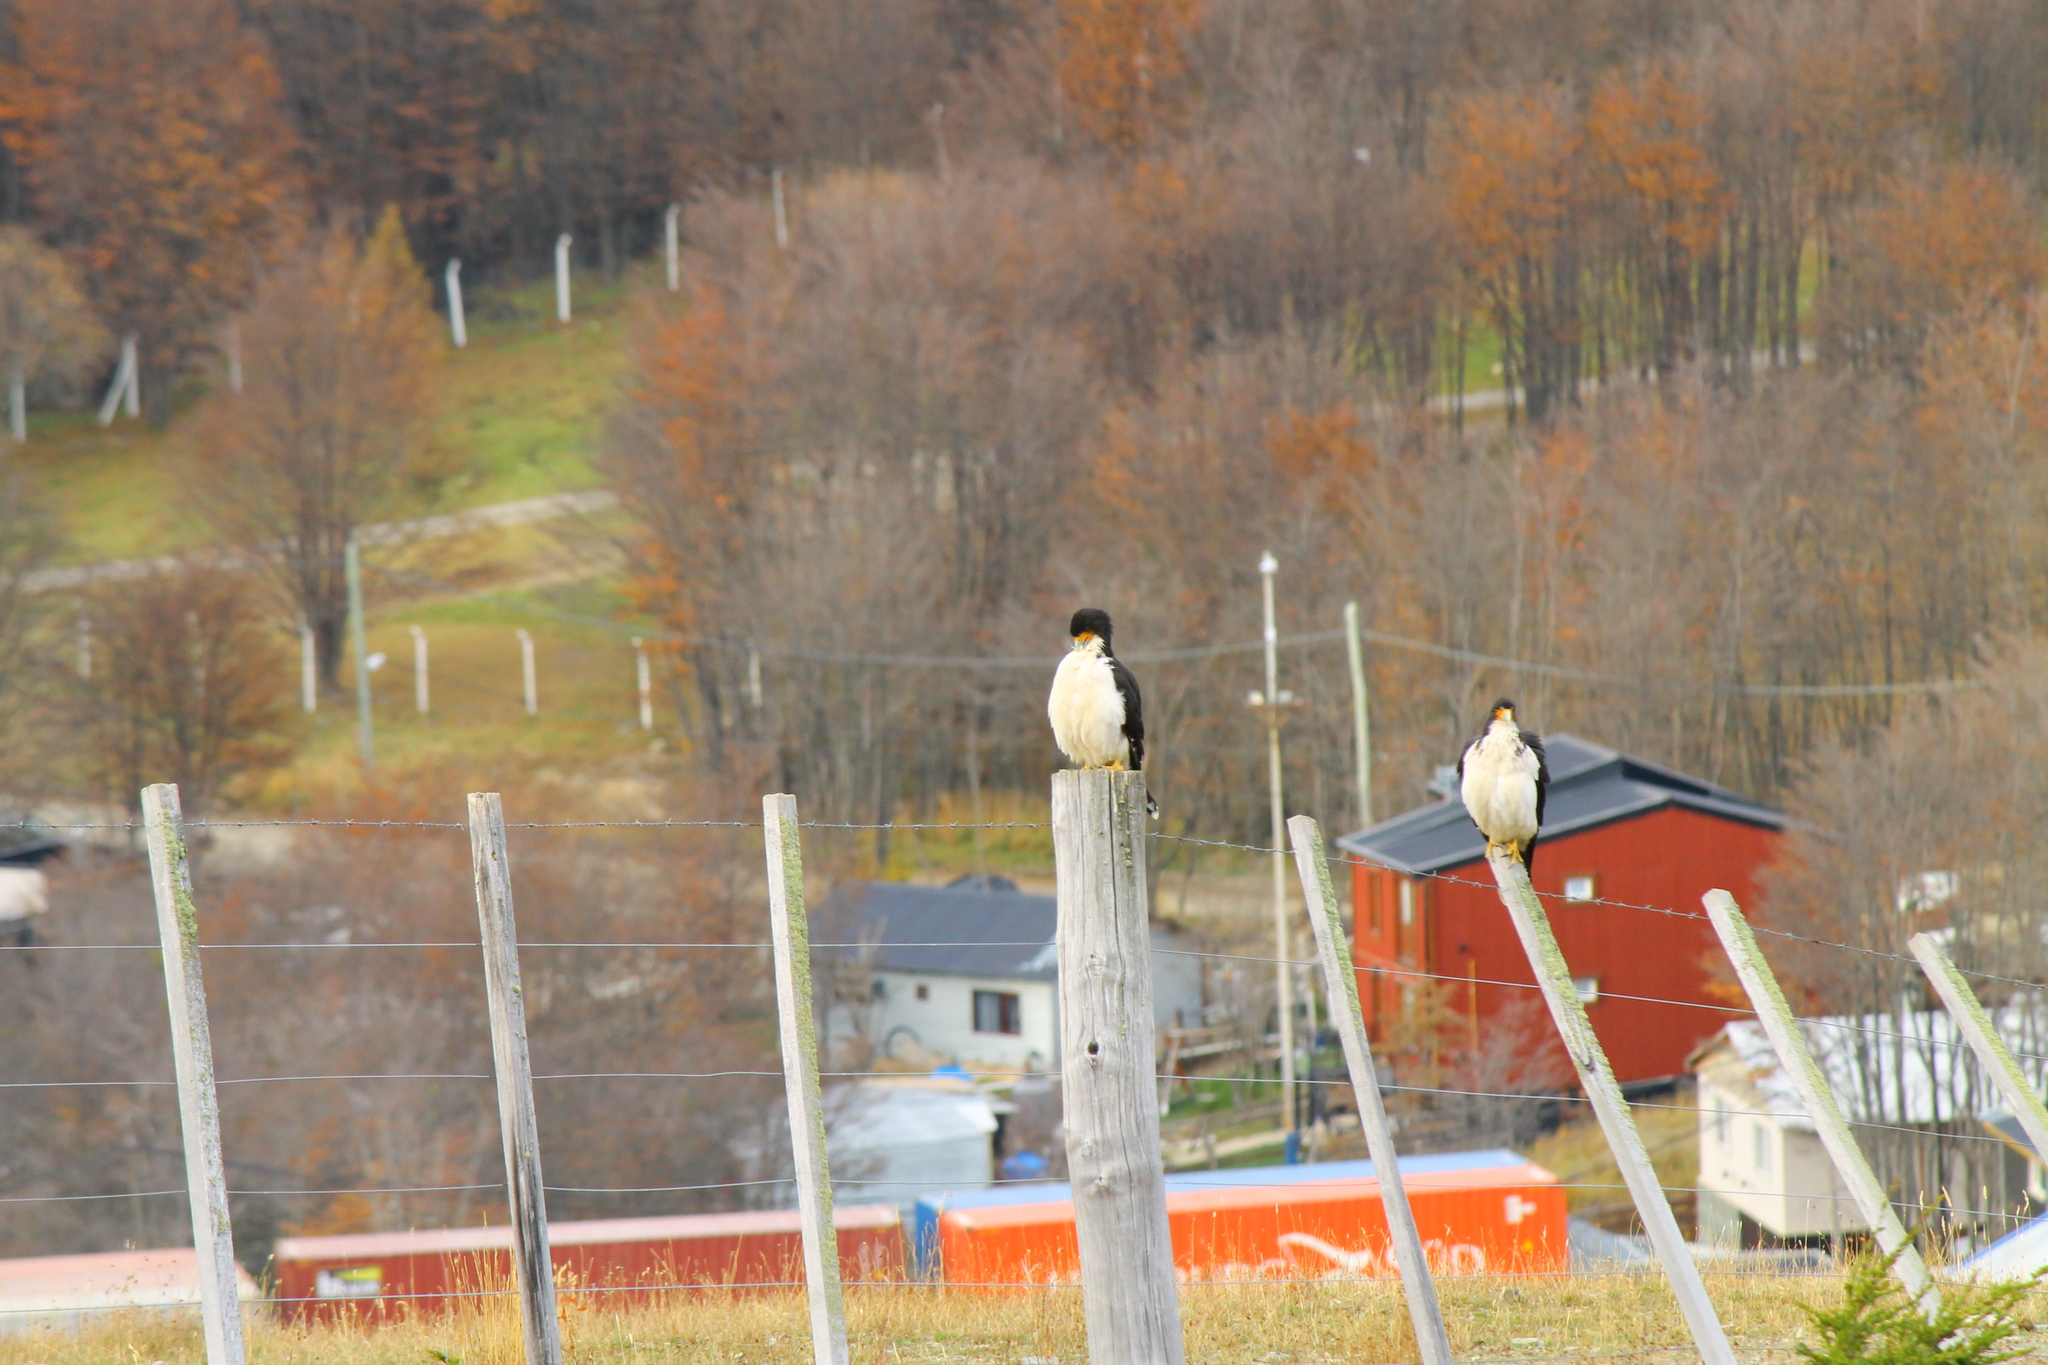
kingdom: Animalia
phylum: Chordata
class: Aves
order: Falconiformes
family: Falconidae
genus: Daptrius
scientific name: Daptrius
